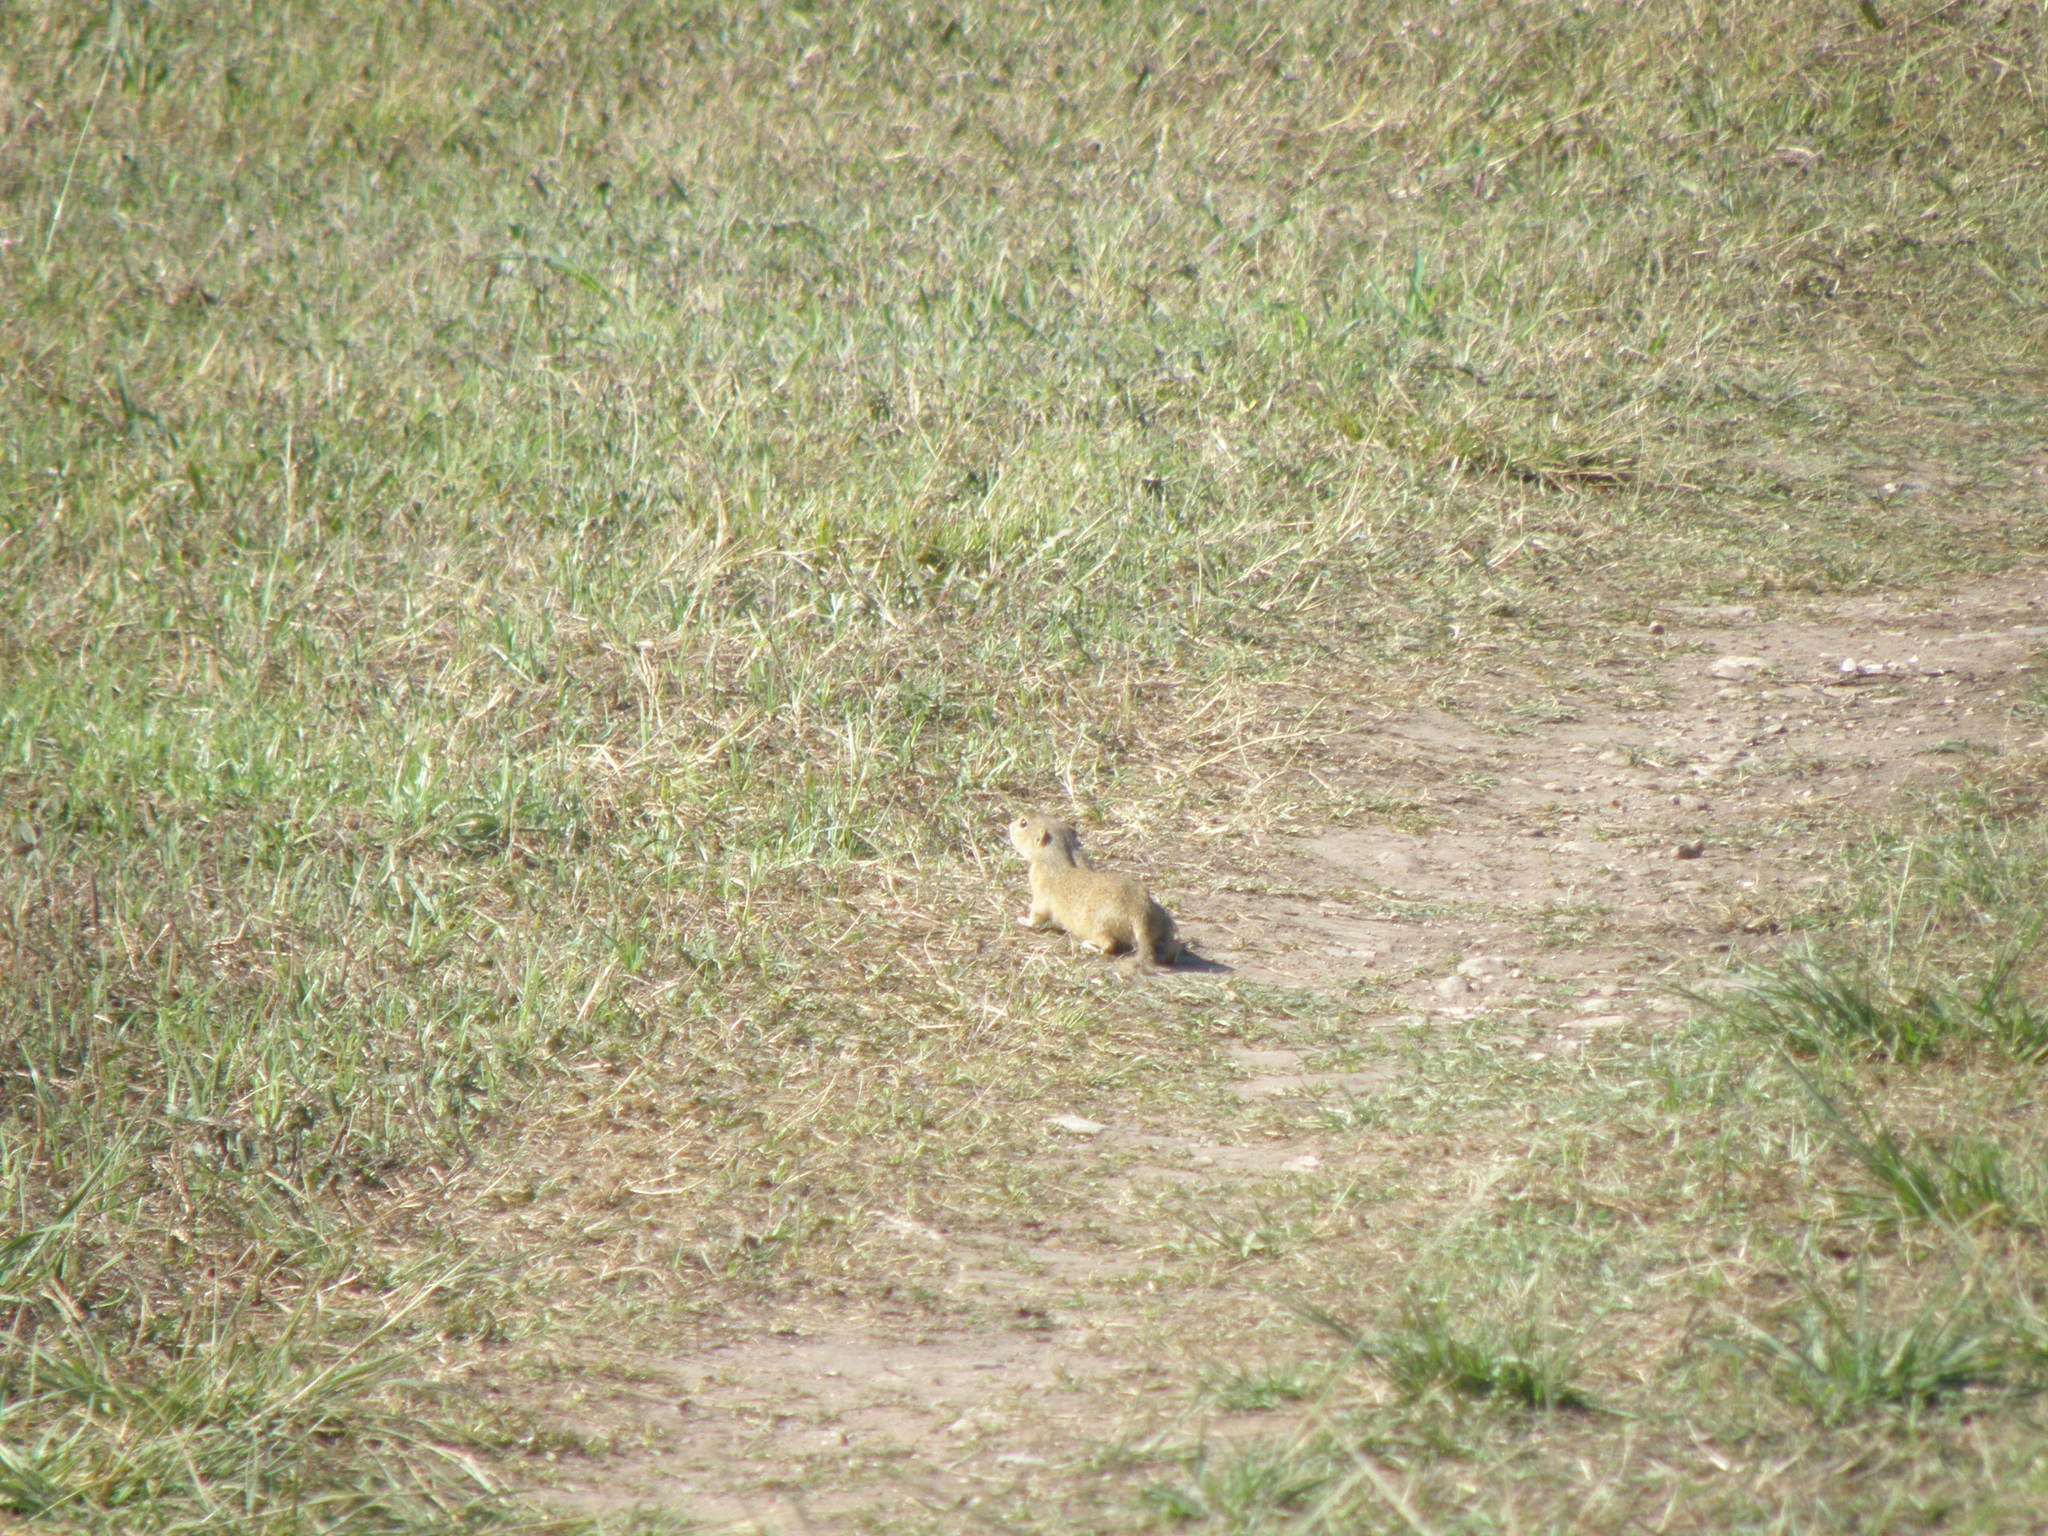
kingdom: Animalia
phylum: Chordata
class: Mammalia
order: Rodentia
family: Sciuridae
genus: Spermophilus
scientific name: Spermophilus citellus
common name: European ground squirrel
